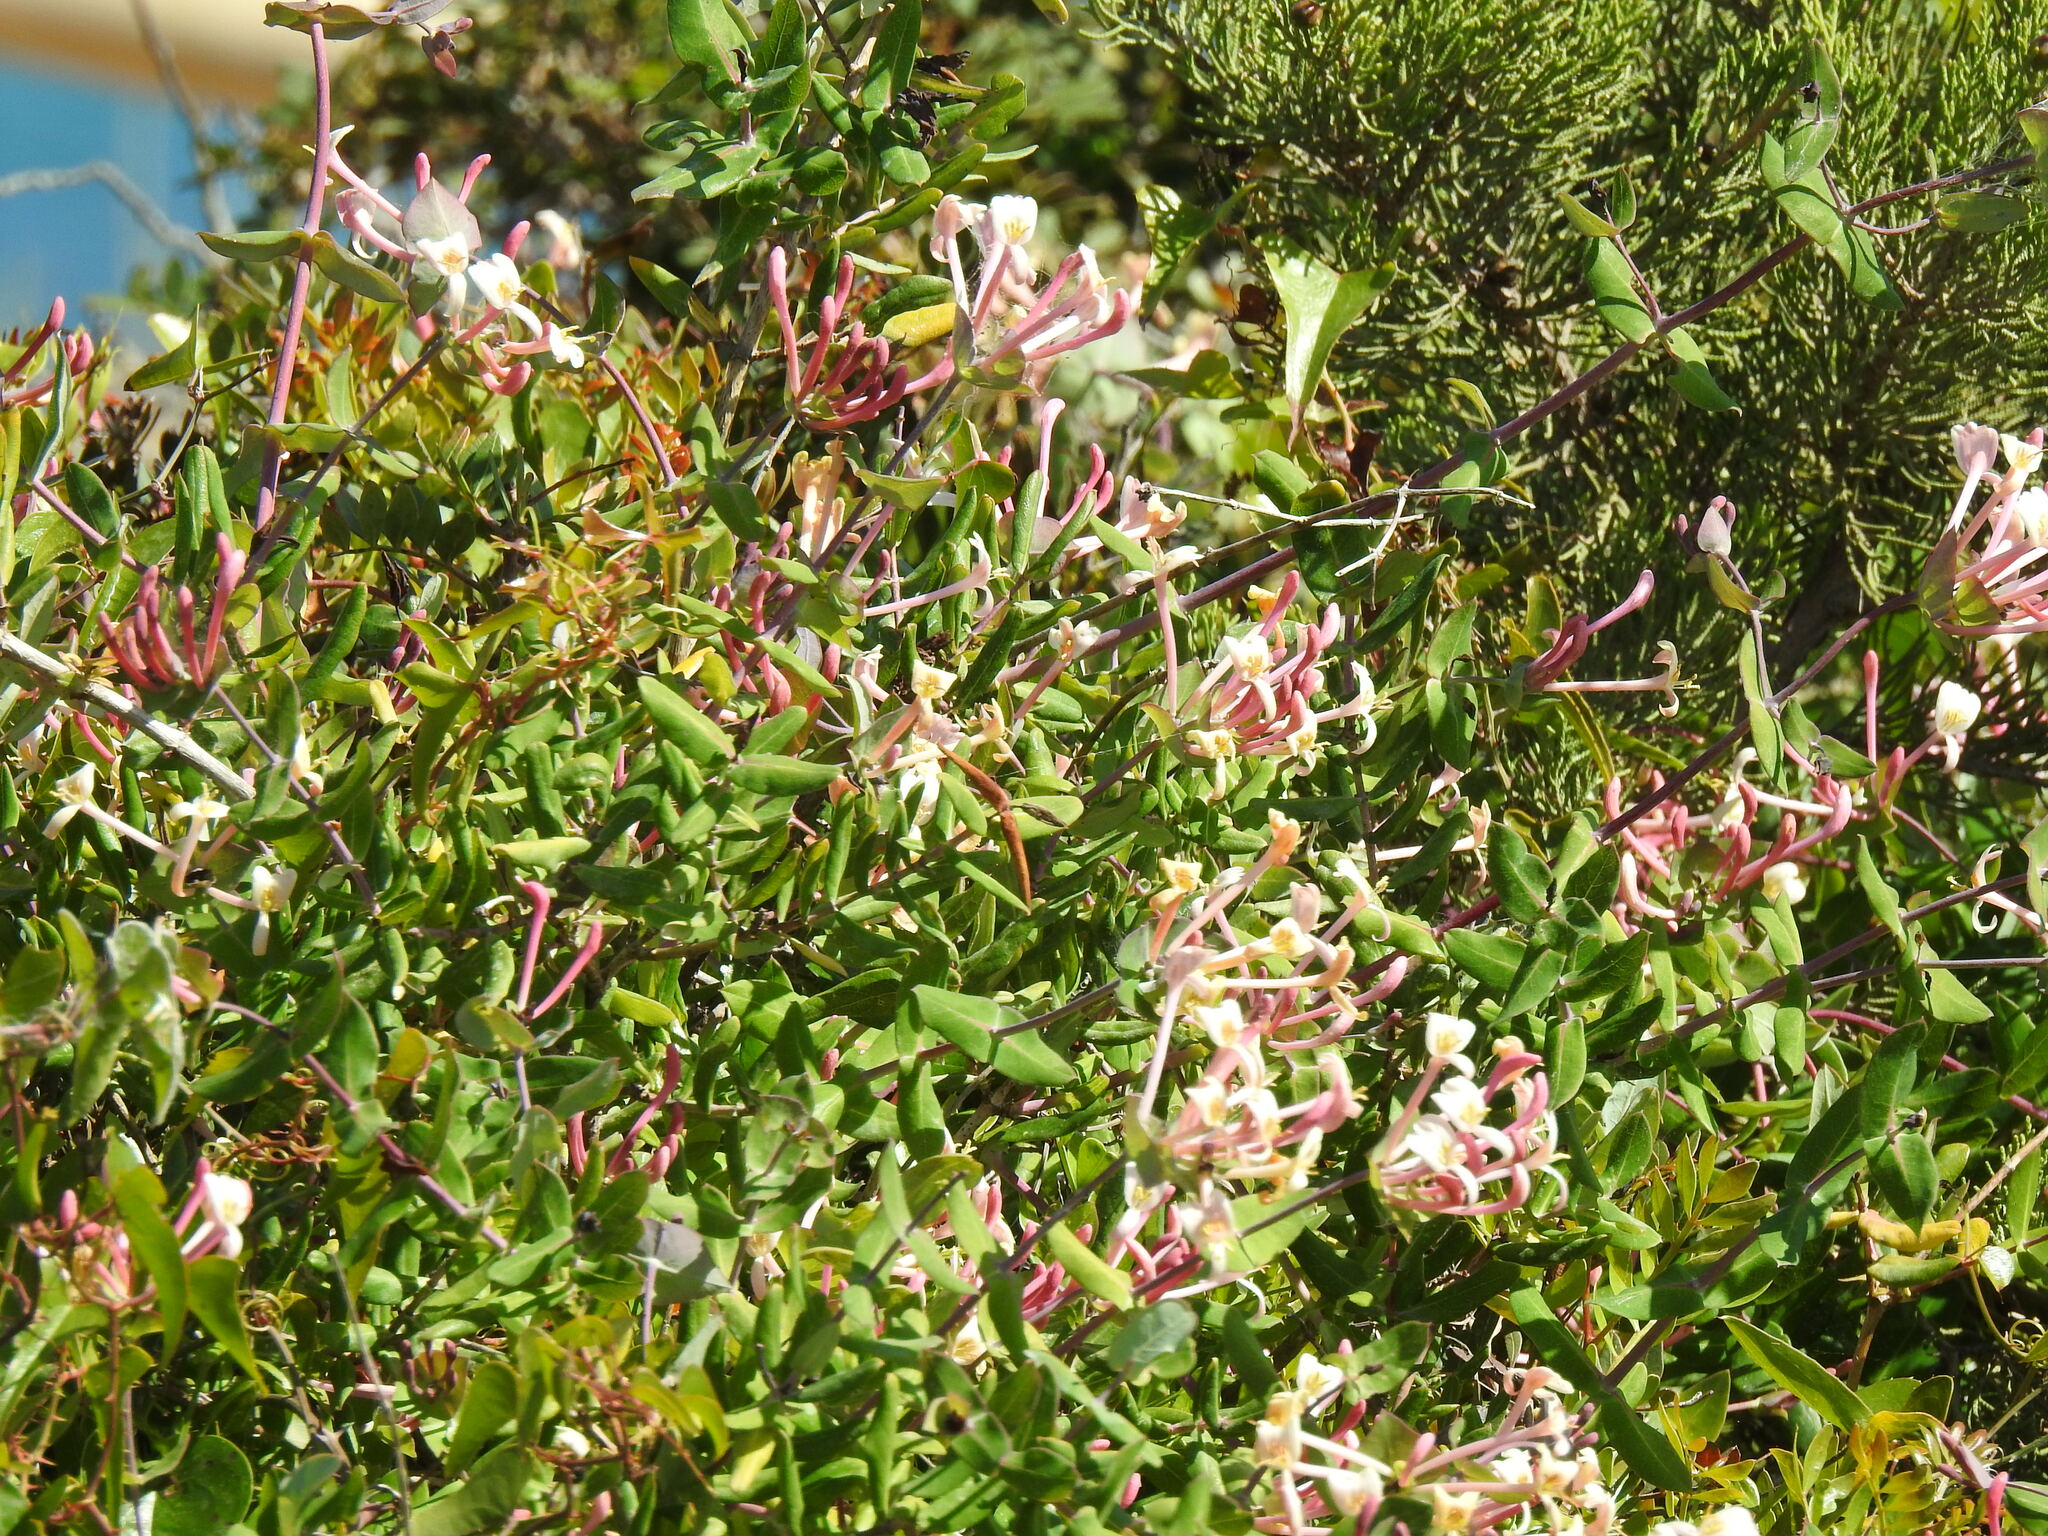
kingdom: Plantae
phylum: Tracheophyta
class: Magnoliopsida
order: Dipsacales
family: Caprifoliaceae
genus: Lonicera
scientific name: Lonicera implexa
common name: Minorca honeysuckle
